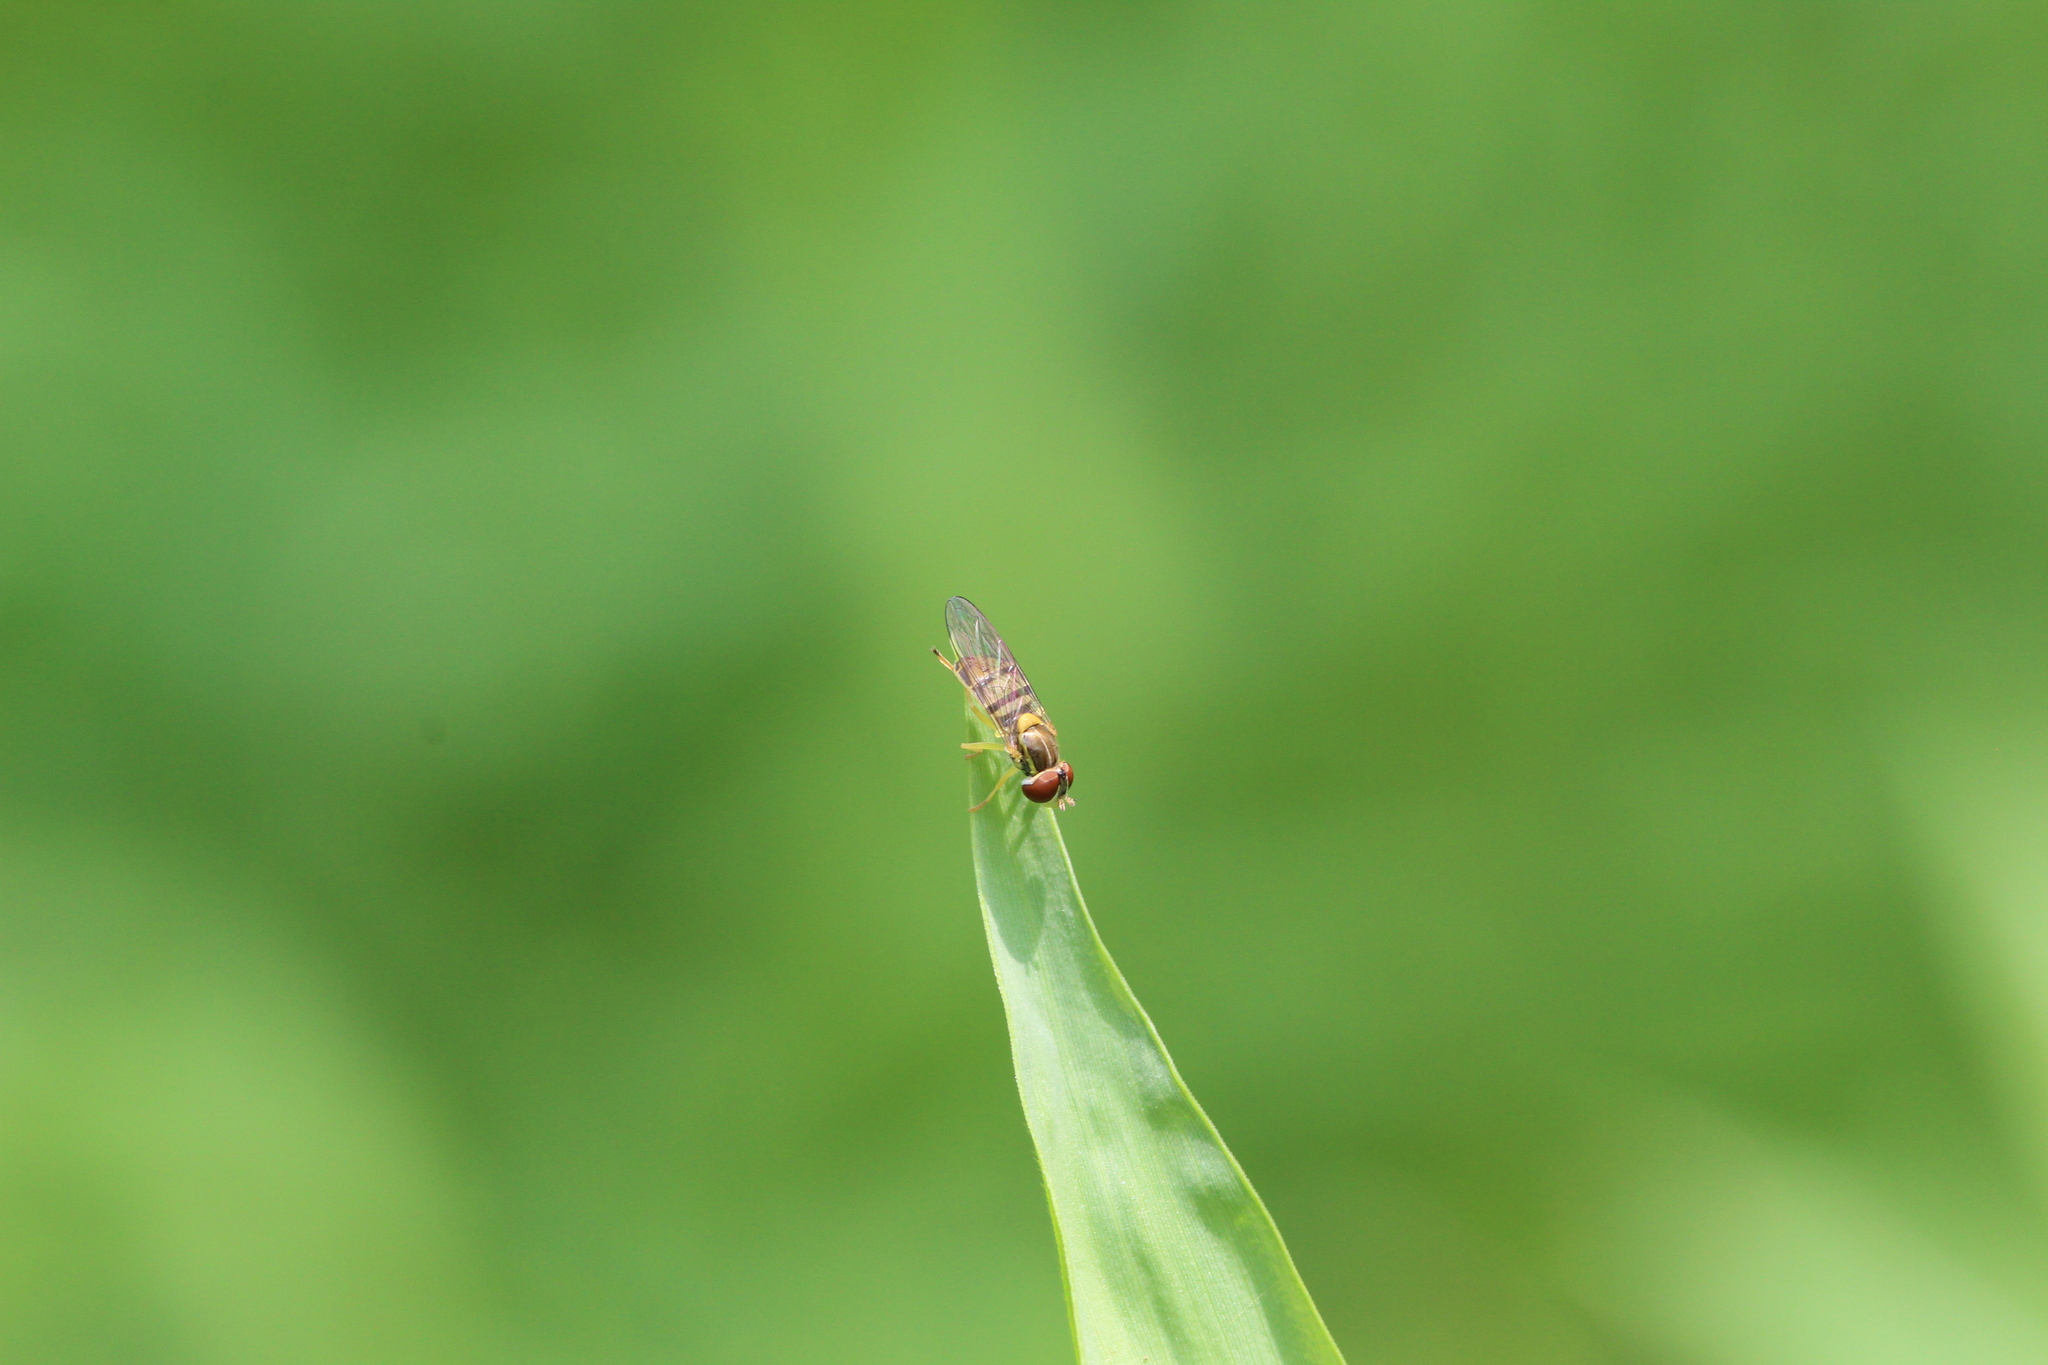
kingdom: Animalia
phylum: Arthropoda
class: Insecta
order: Diptera
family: Syrphidae
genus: Toxomerus
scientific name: Toxomerus marginatus
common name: Syrphid fly
